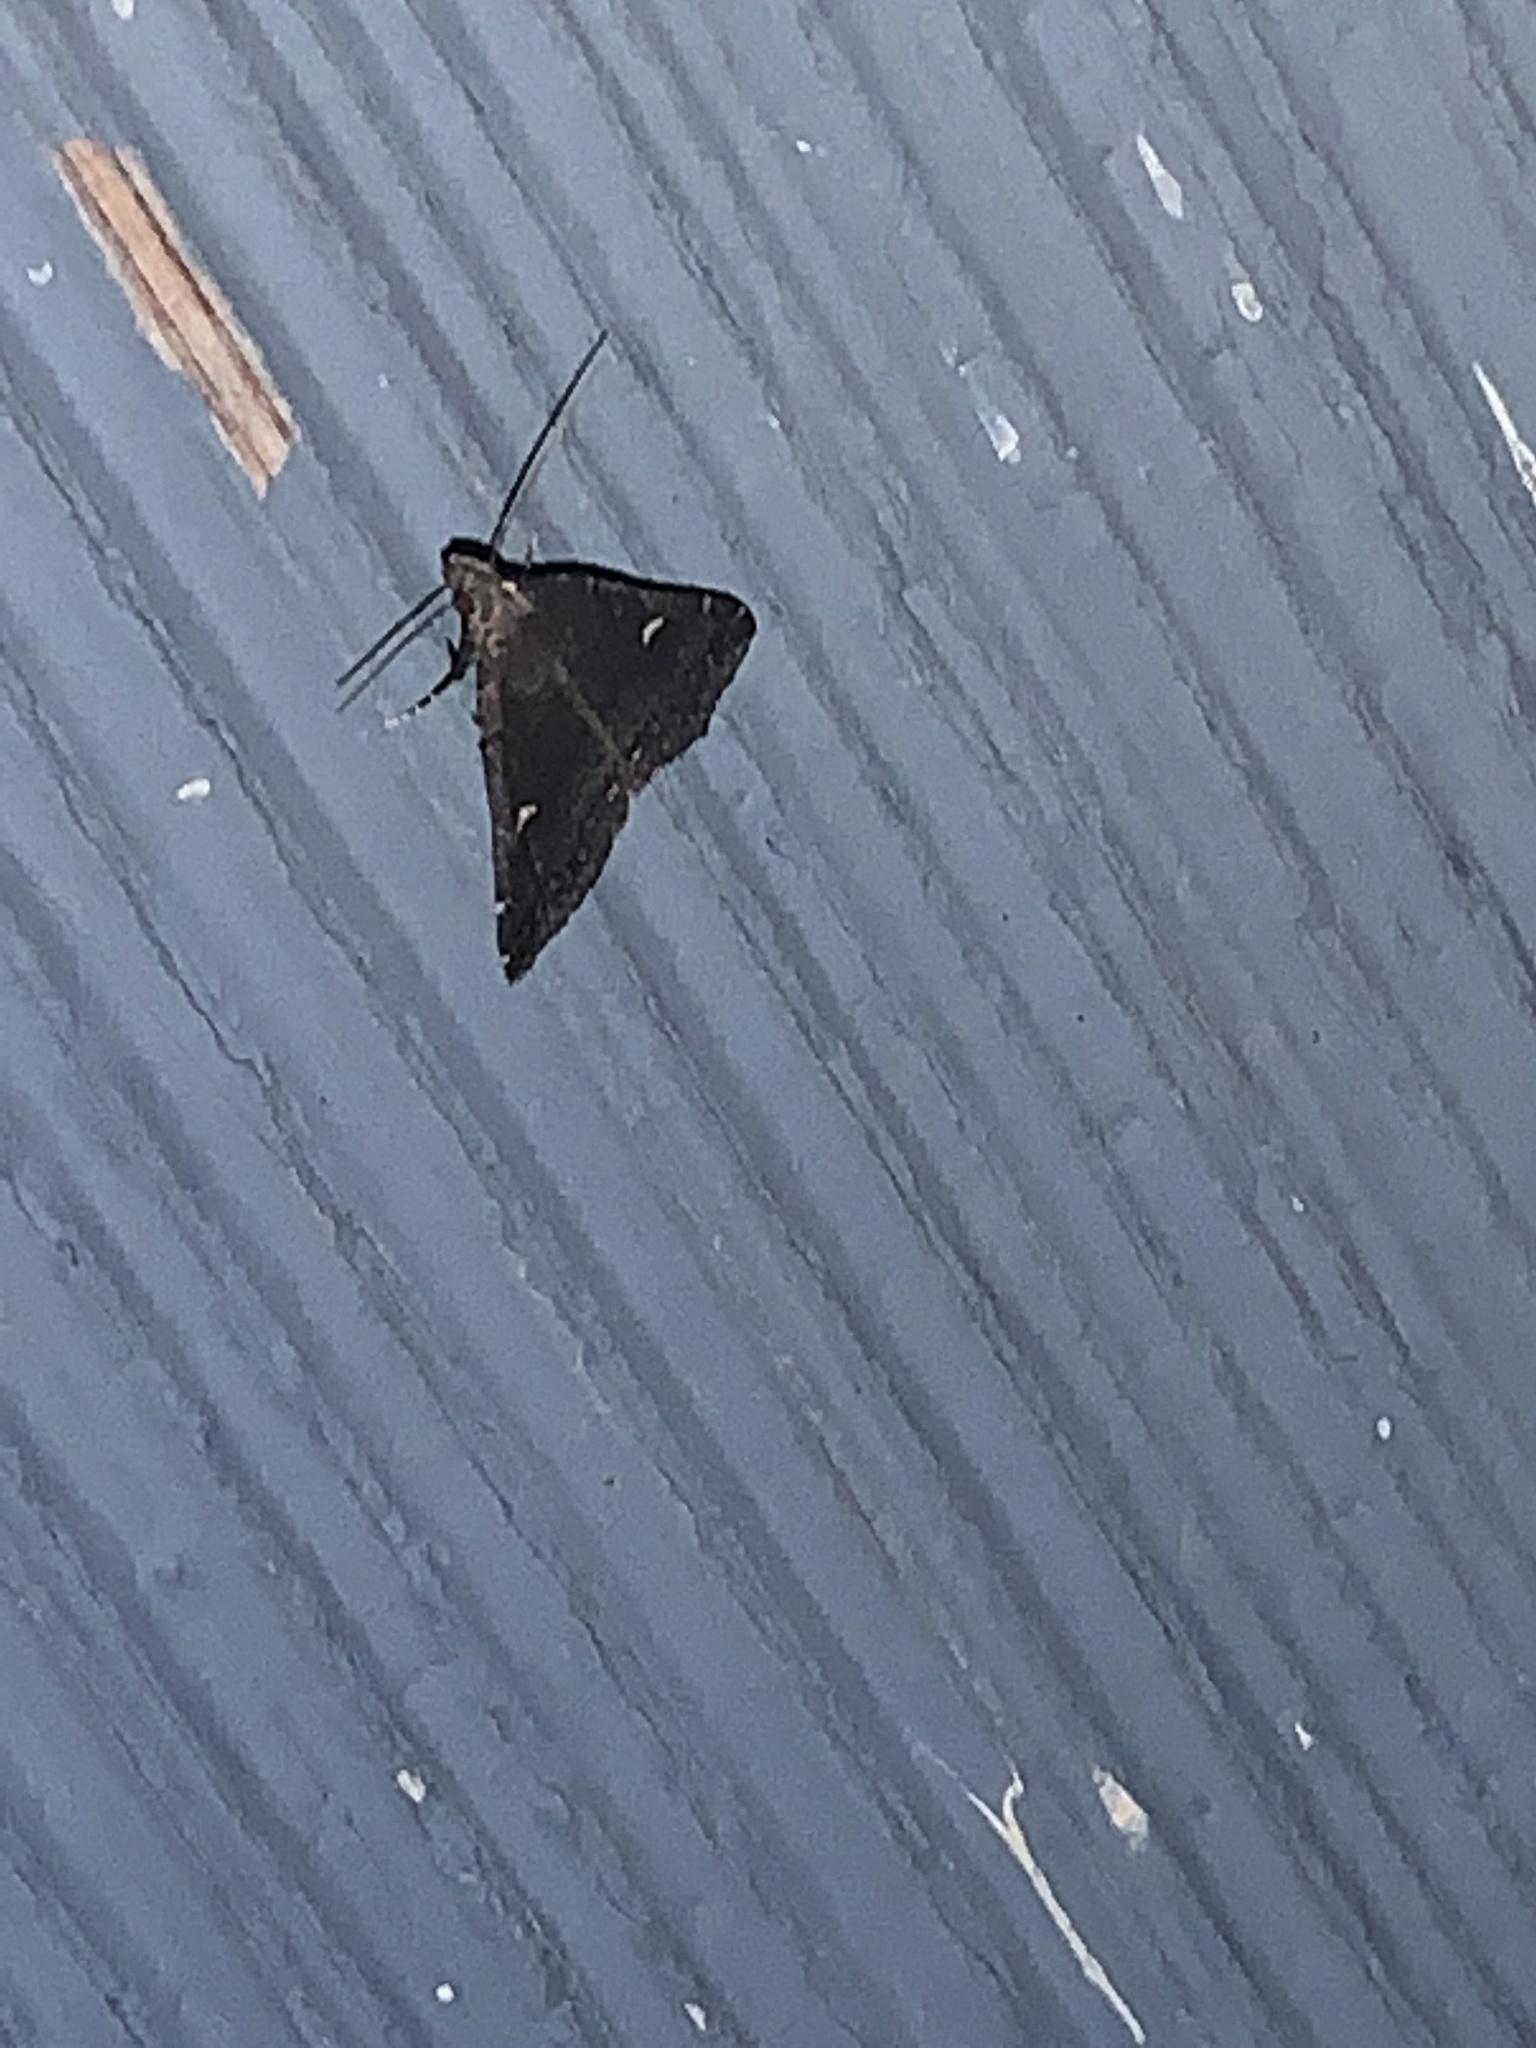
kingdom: Animalia
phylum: Arthropoda
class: Insecta
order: Lepidoptera
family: Erebidae
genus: Tetanolita
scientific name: Tetanolita mynesalis
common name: Smoky tetanolita moth
